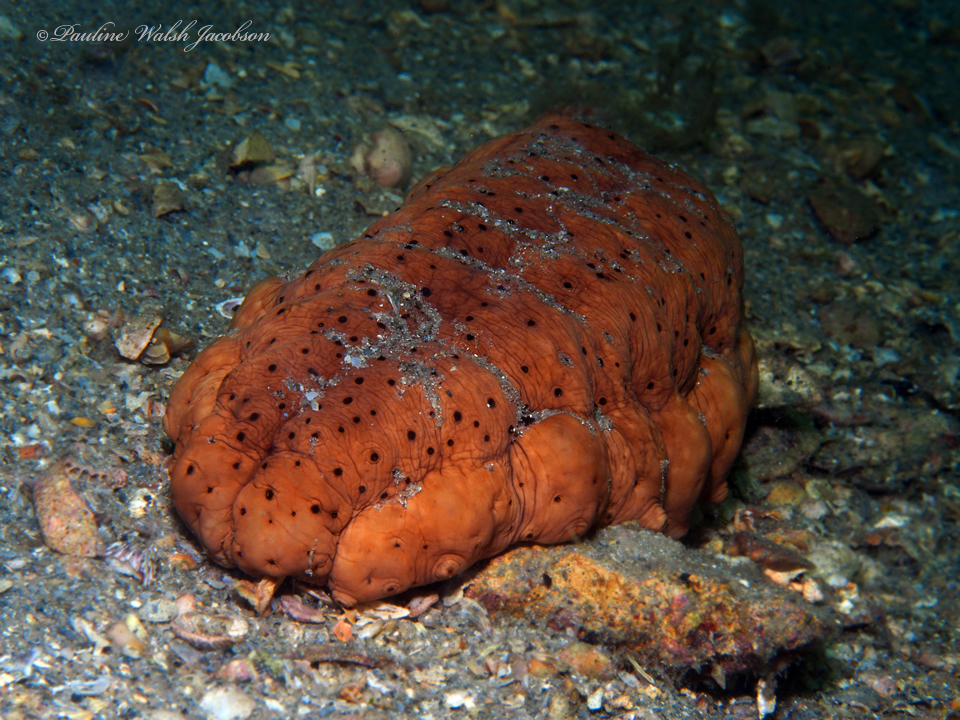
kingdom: Animalia
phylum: Echinodermata
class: Holothuroidea
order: Synallactida
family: Stichopodidae
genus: Isostichopus
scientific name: Isostichopus badionotus
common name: Chocolate chip cucumber
